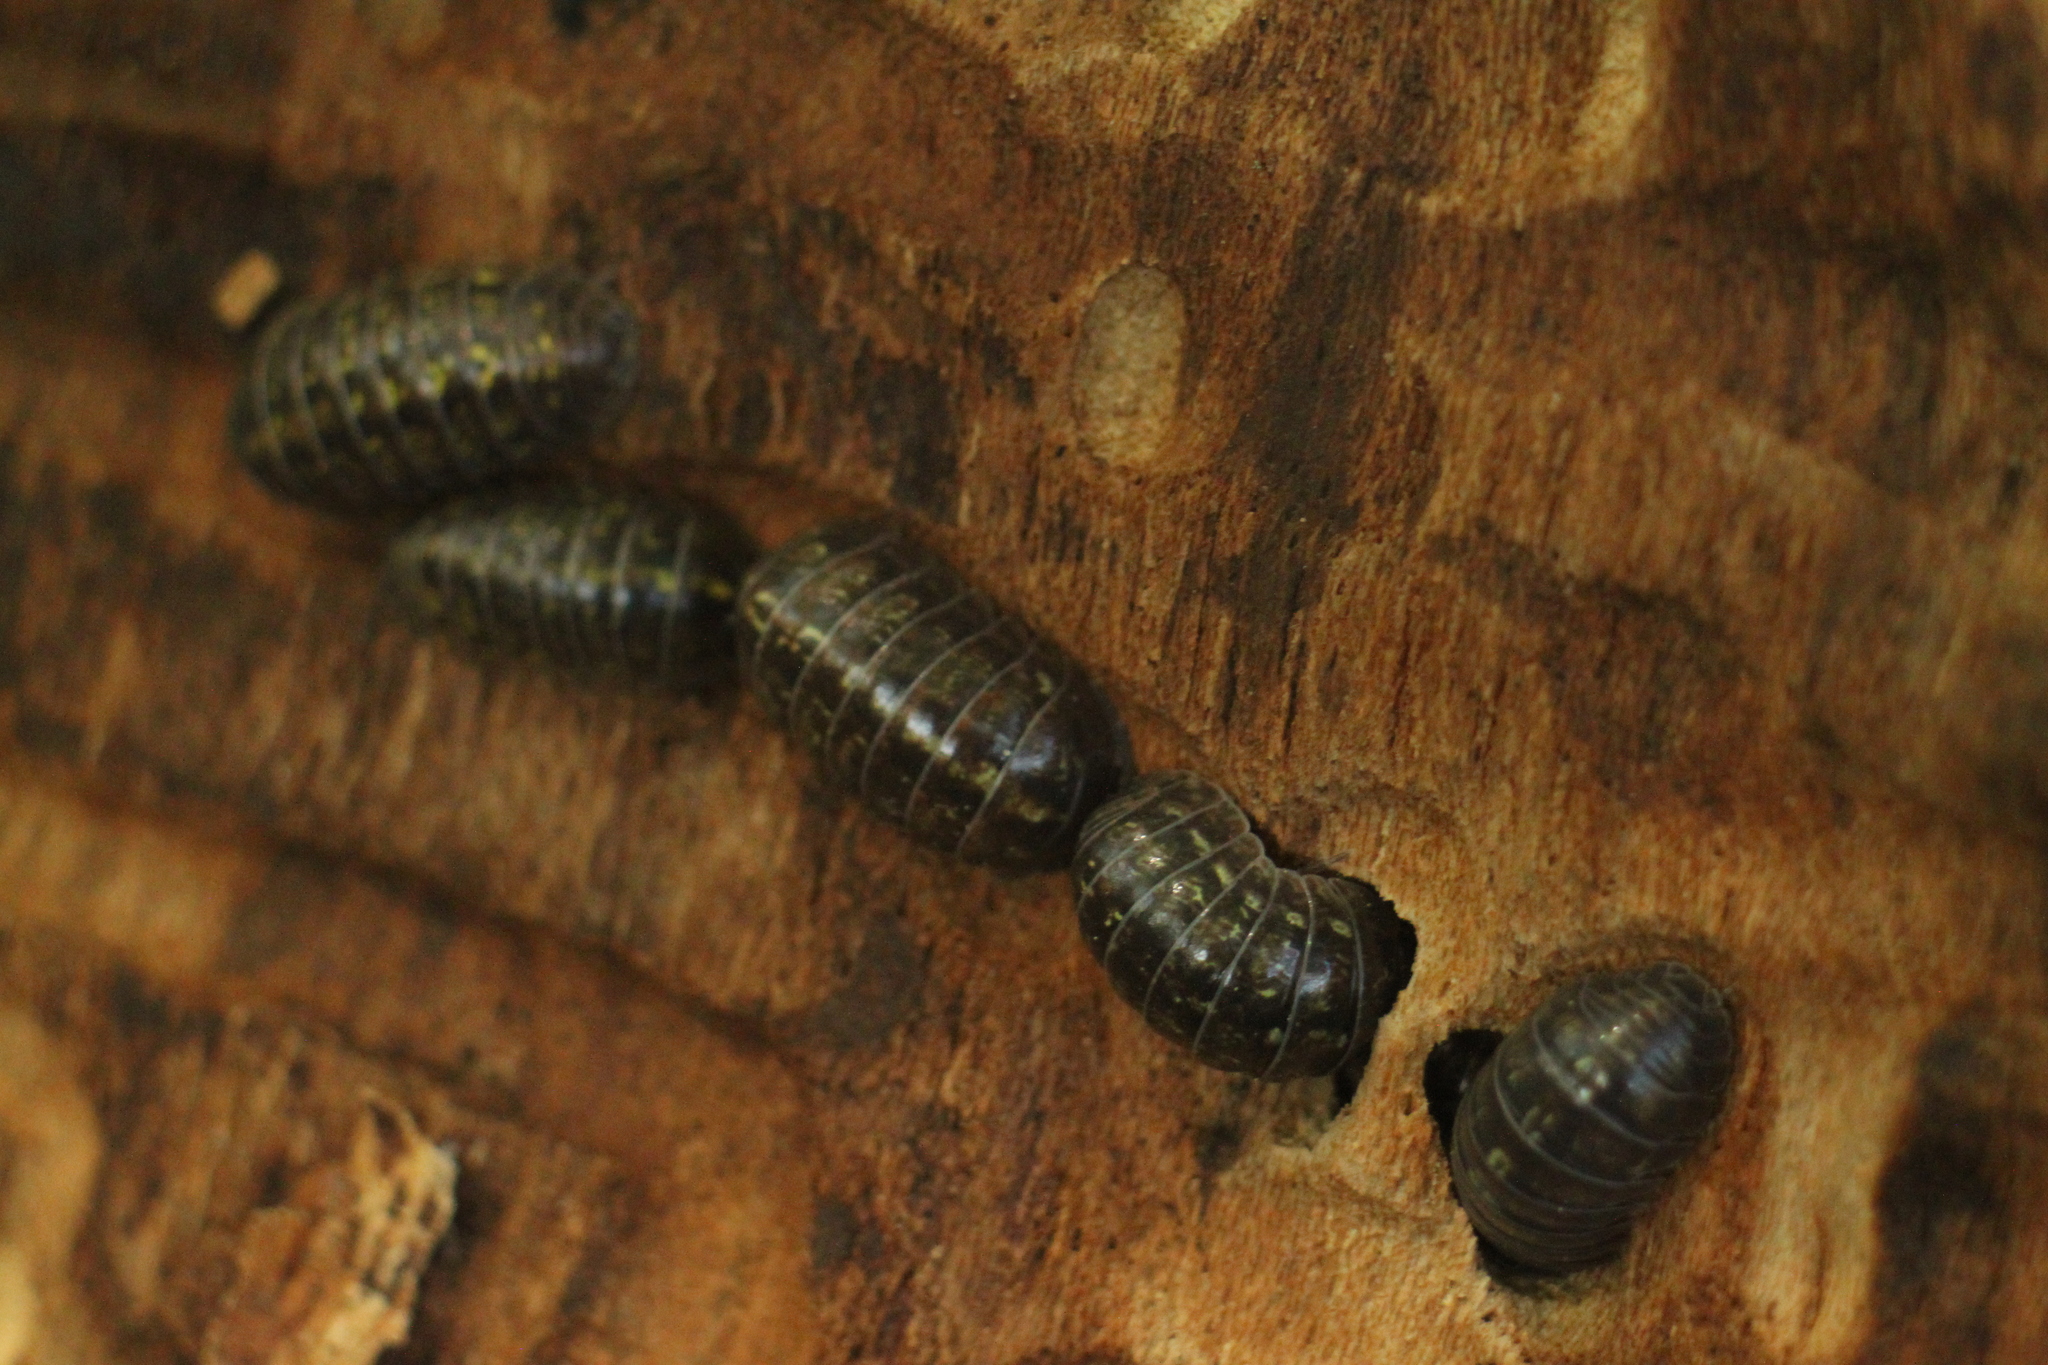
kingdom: Animalia
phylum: Arthropoda
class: Malacostraca
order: Isopoda
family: Armadillidiidae
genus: Armadillidium
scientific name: Armadillidium vulgare
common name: Common pill woodlouse
